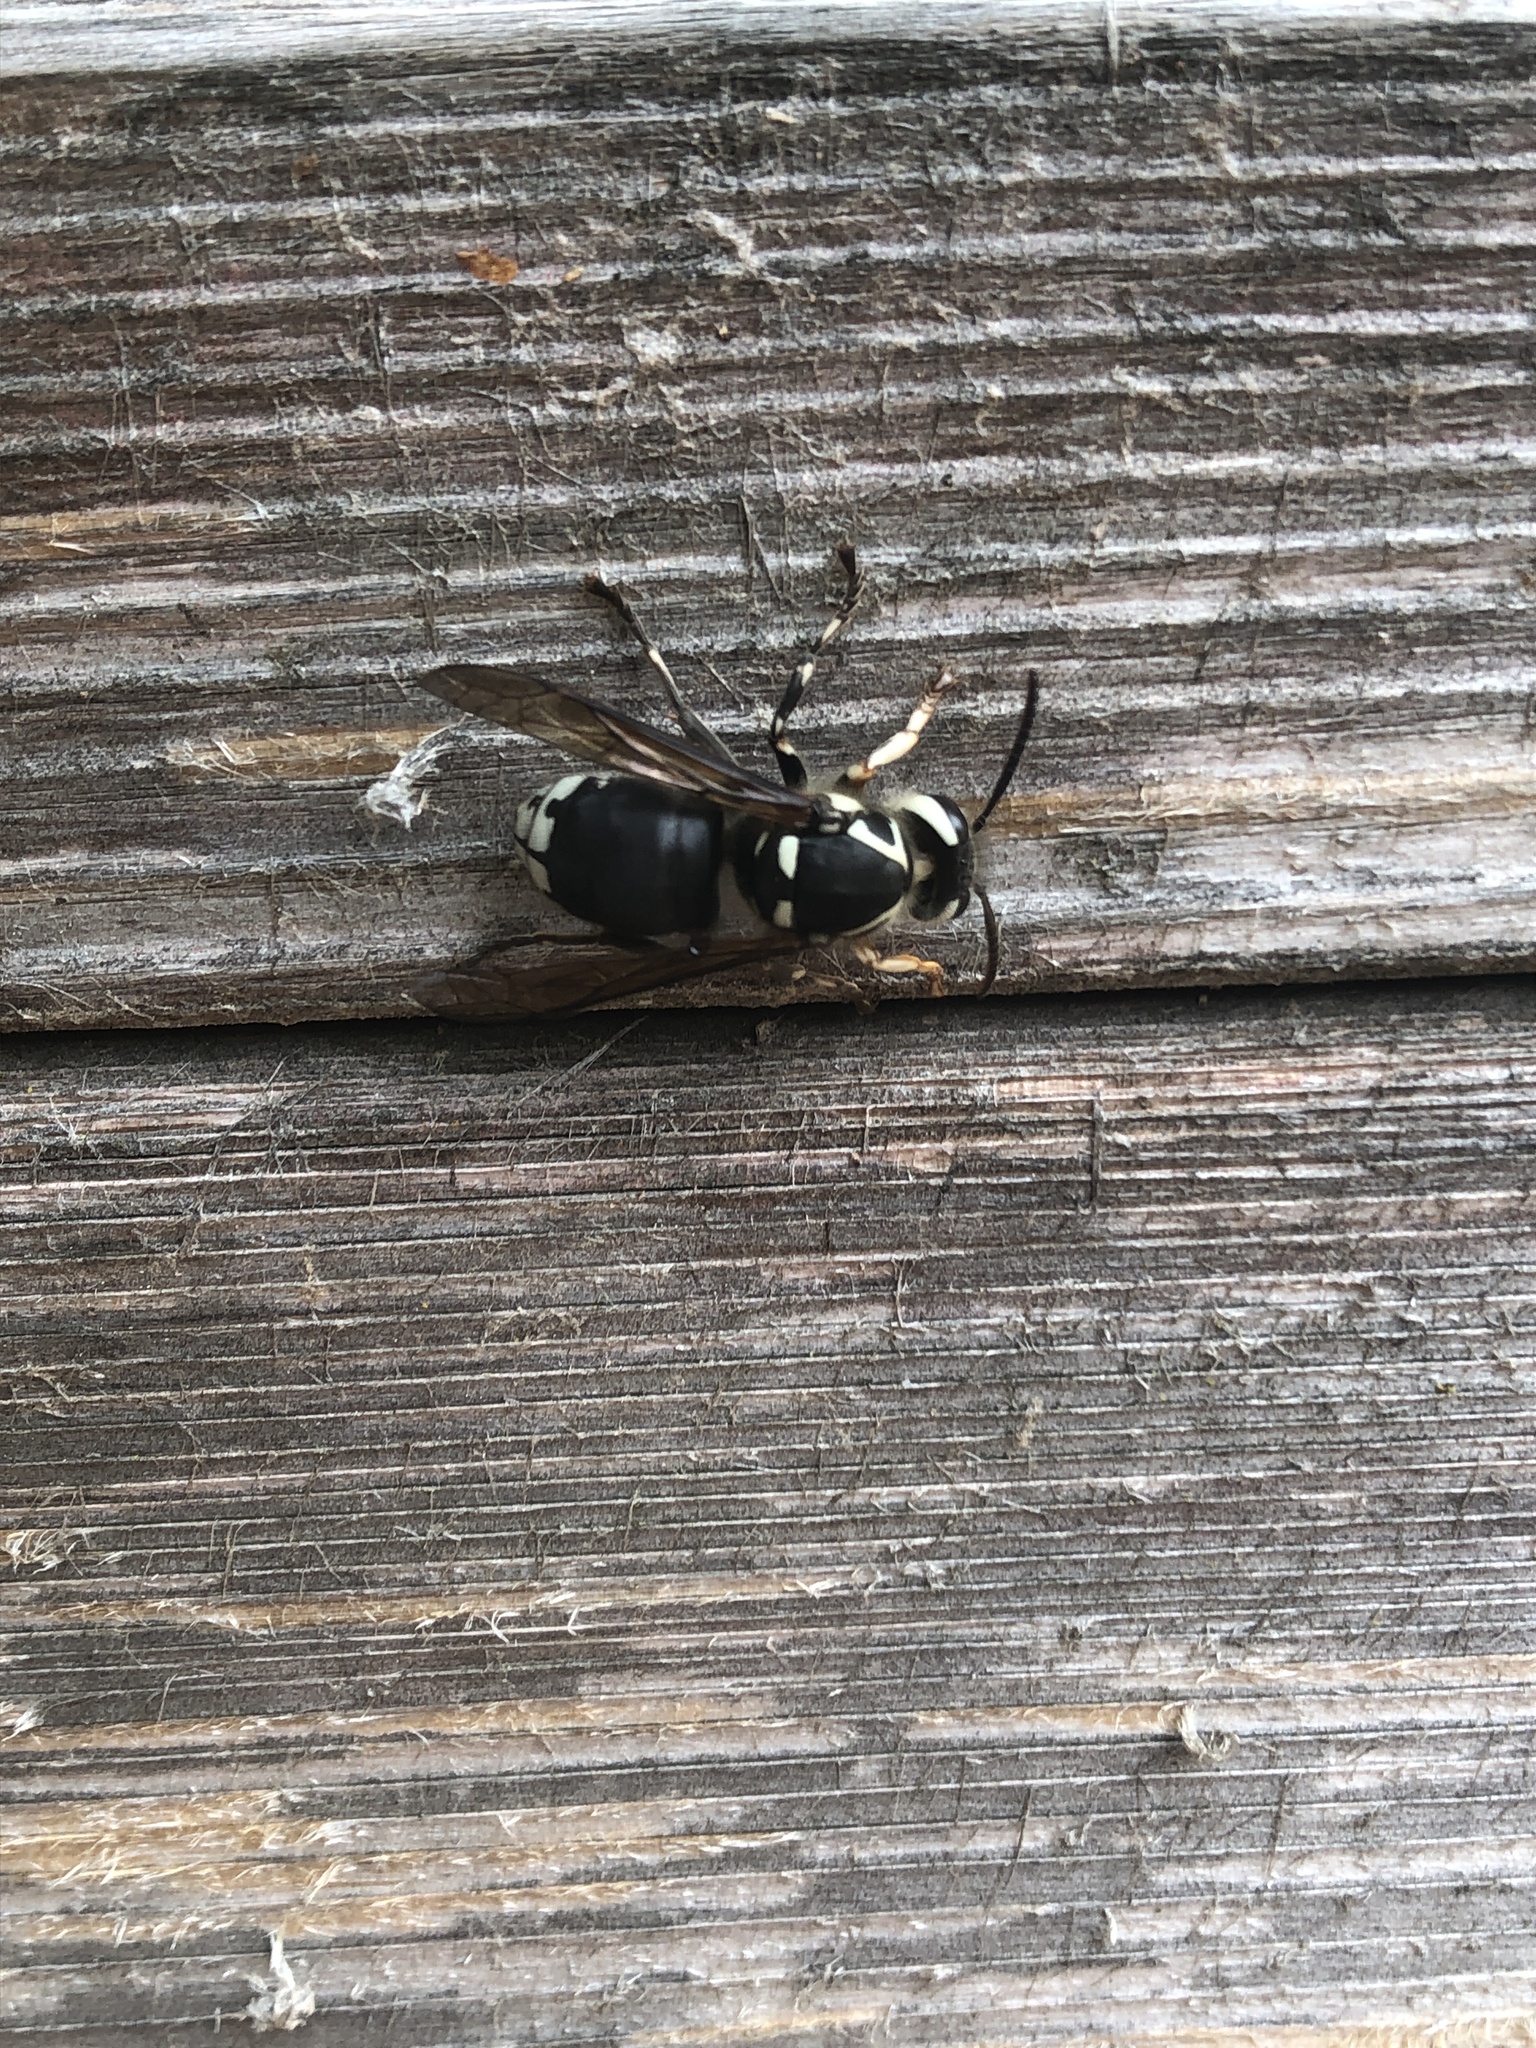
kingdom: Animalia
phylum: Arthropoda
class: Insecta
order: Hymenoptera
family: Vespidae
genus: Dolichovespula
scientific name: Dolichovespula maculata
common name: Bald-faced hornet
